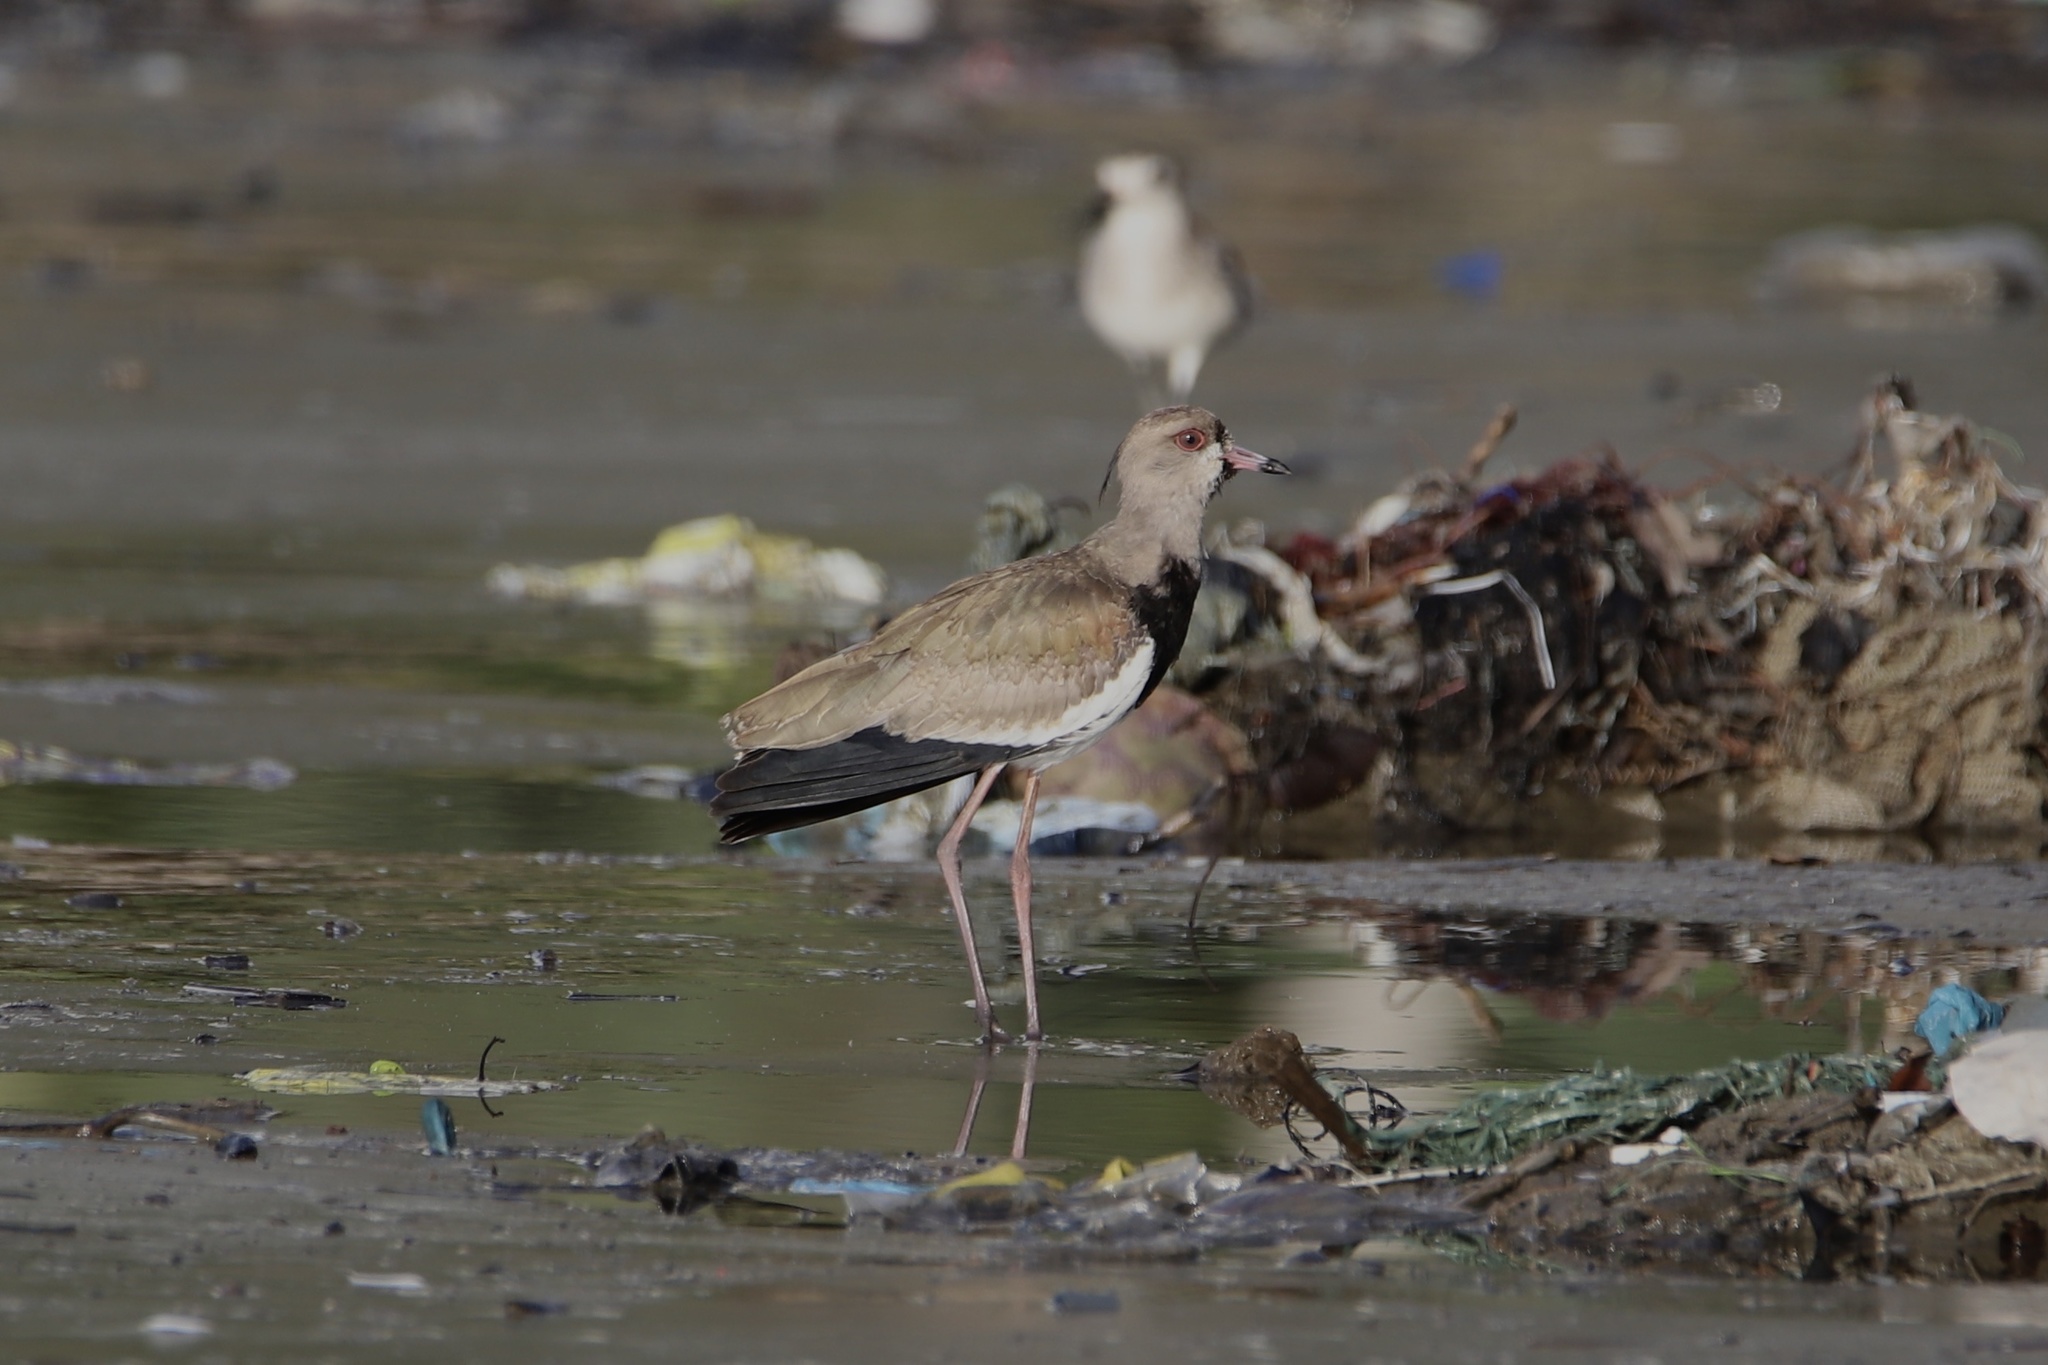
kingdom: Animalia
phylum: Chordata
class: Aves
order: Charadriiformes
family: Charadriidae
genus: Vanellus
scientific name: Vanellus chilensis
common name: Southern lapwing
